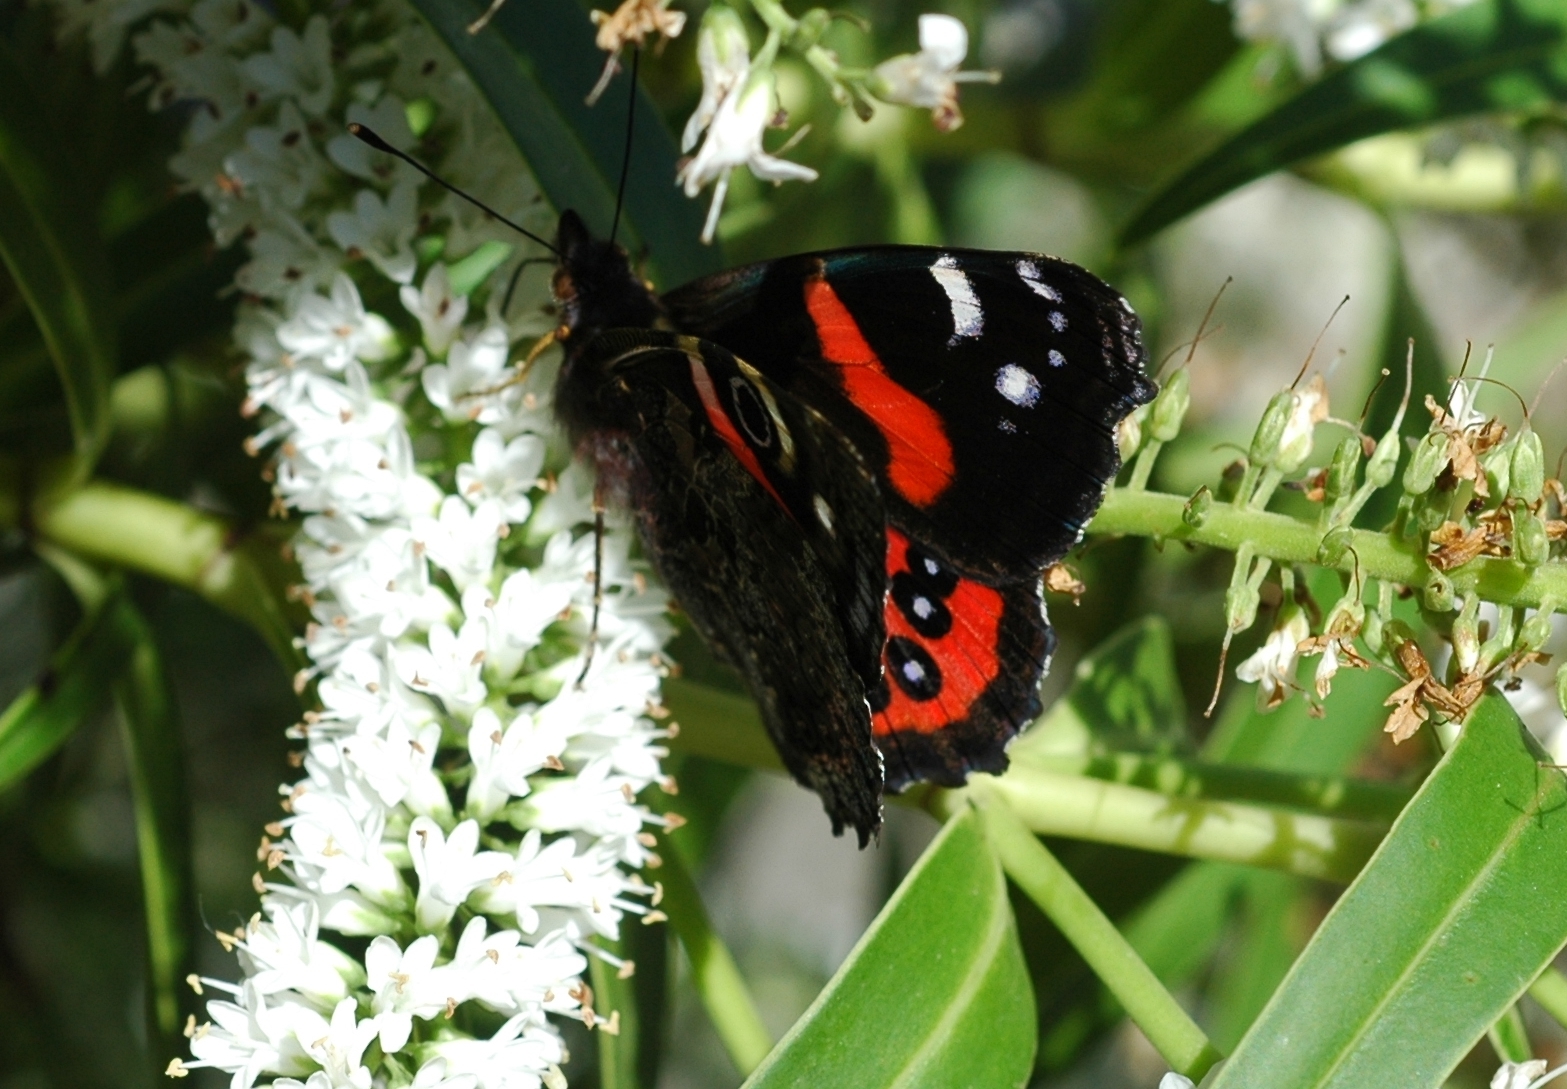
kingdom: Animalia
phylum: Arthropoda
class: Insecta
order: Lepidoptera
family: Nymphalidae
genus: Vanessa
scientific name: Vanessa gonerilla
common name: New zealand red admiral
